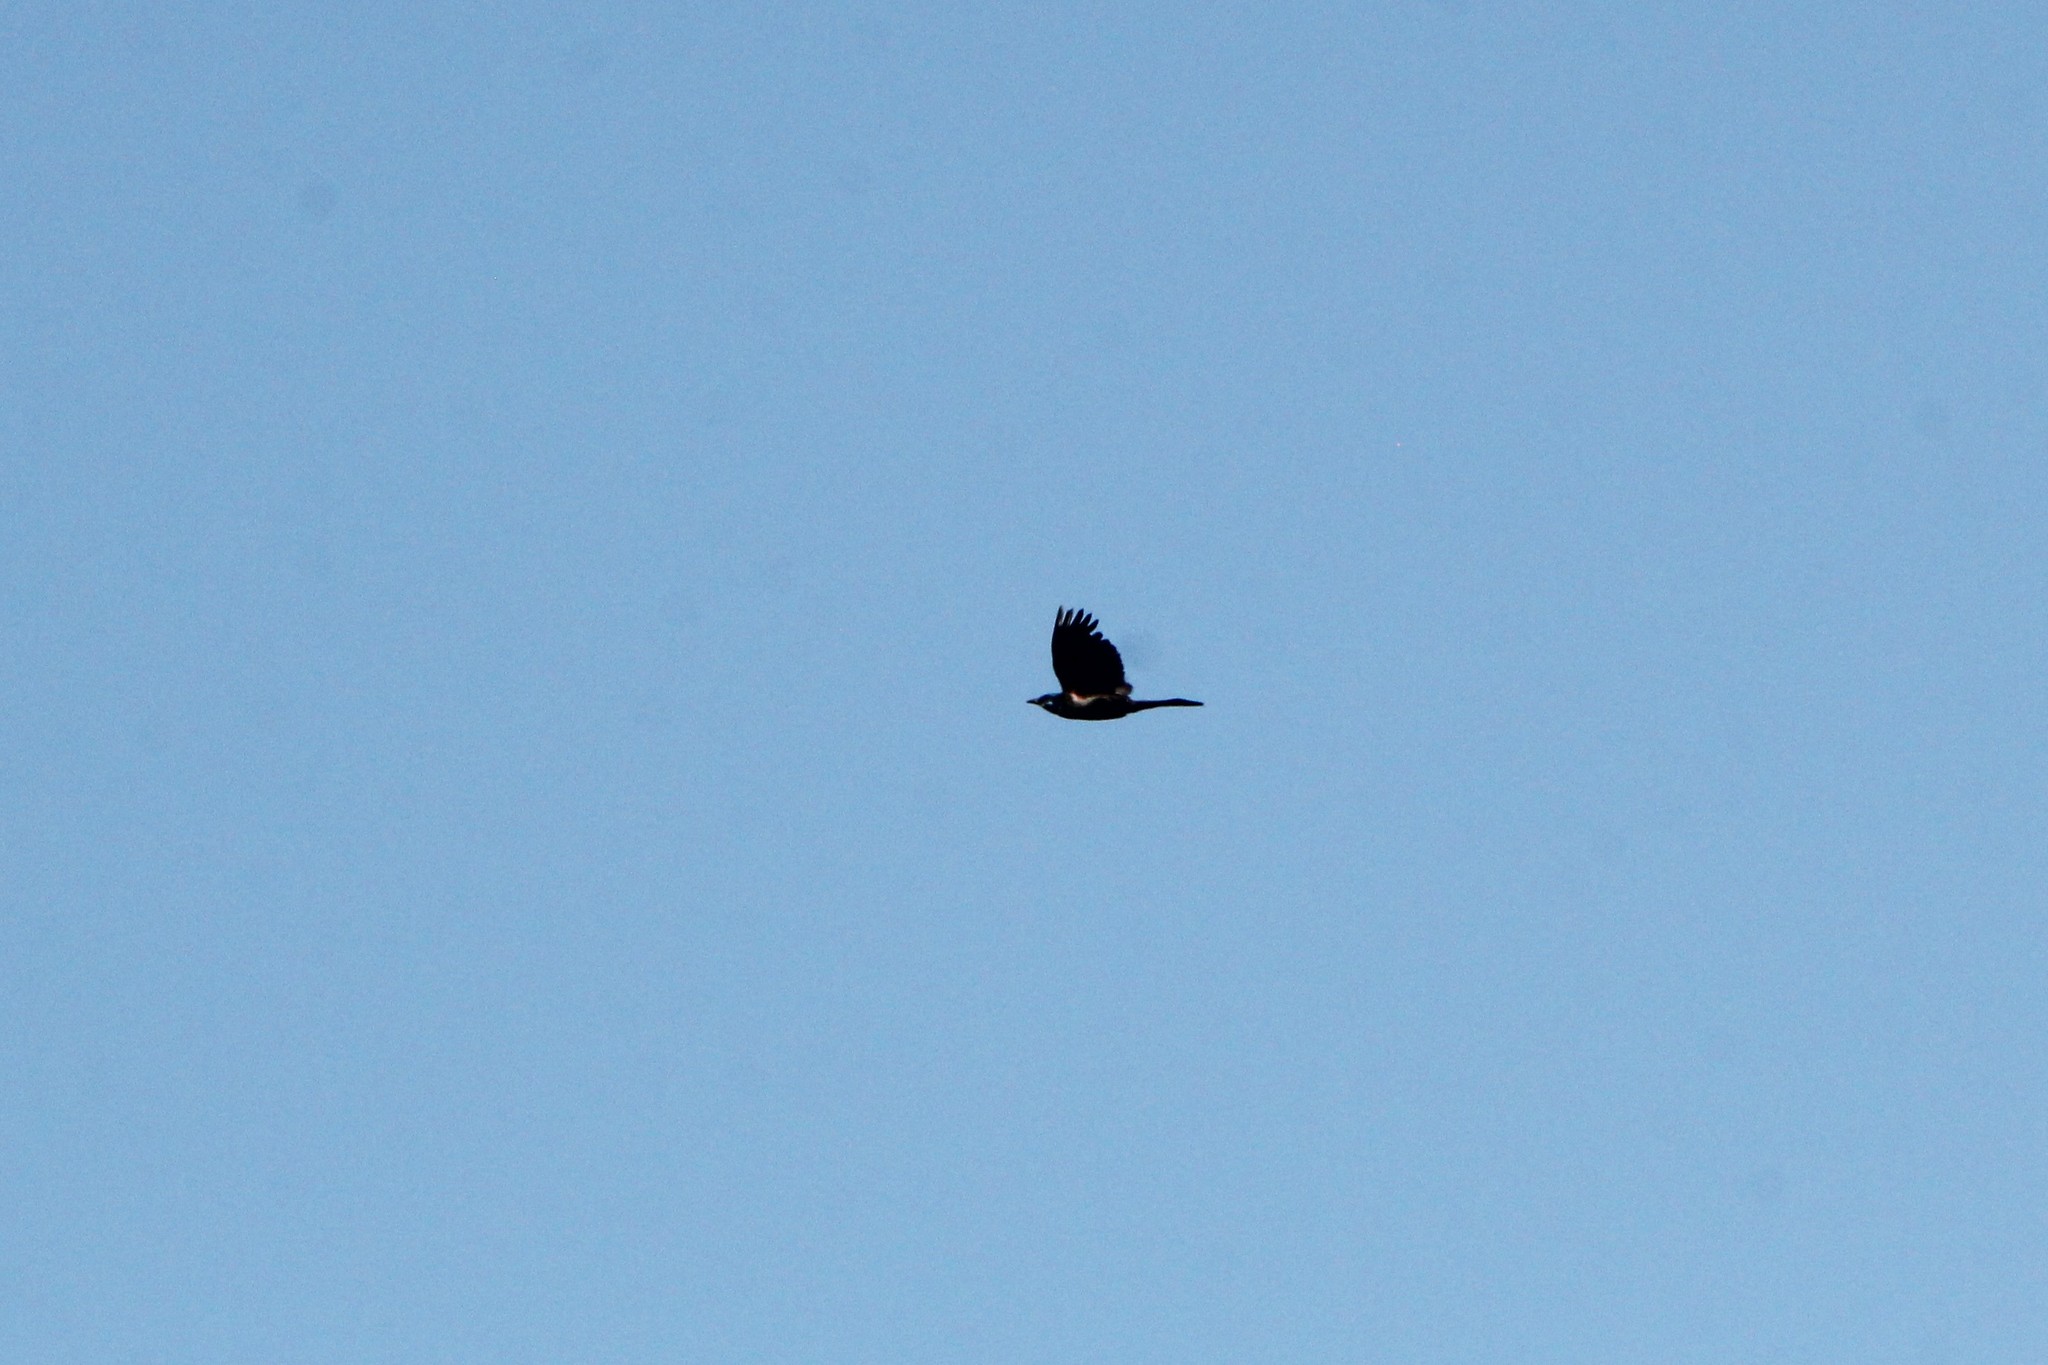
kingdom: Animalia
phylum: Chordata
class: Aves
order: Passeriformes
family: Icteridae
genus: Quiscalus
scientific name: Quiscalus quiscula
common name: Common grackle
